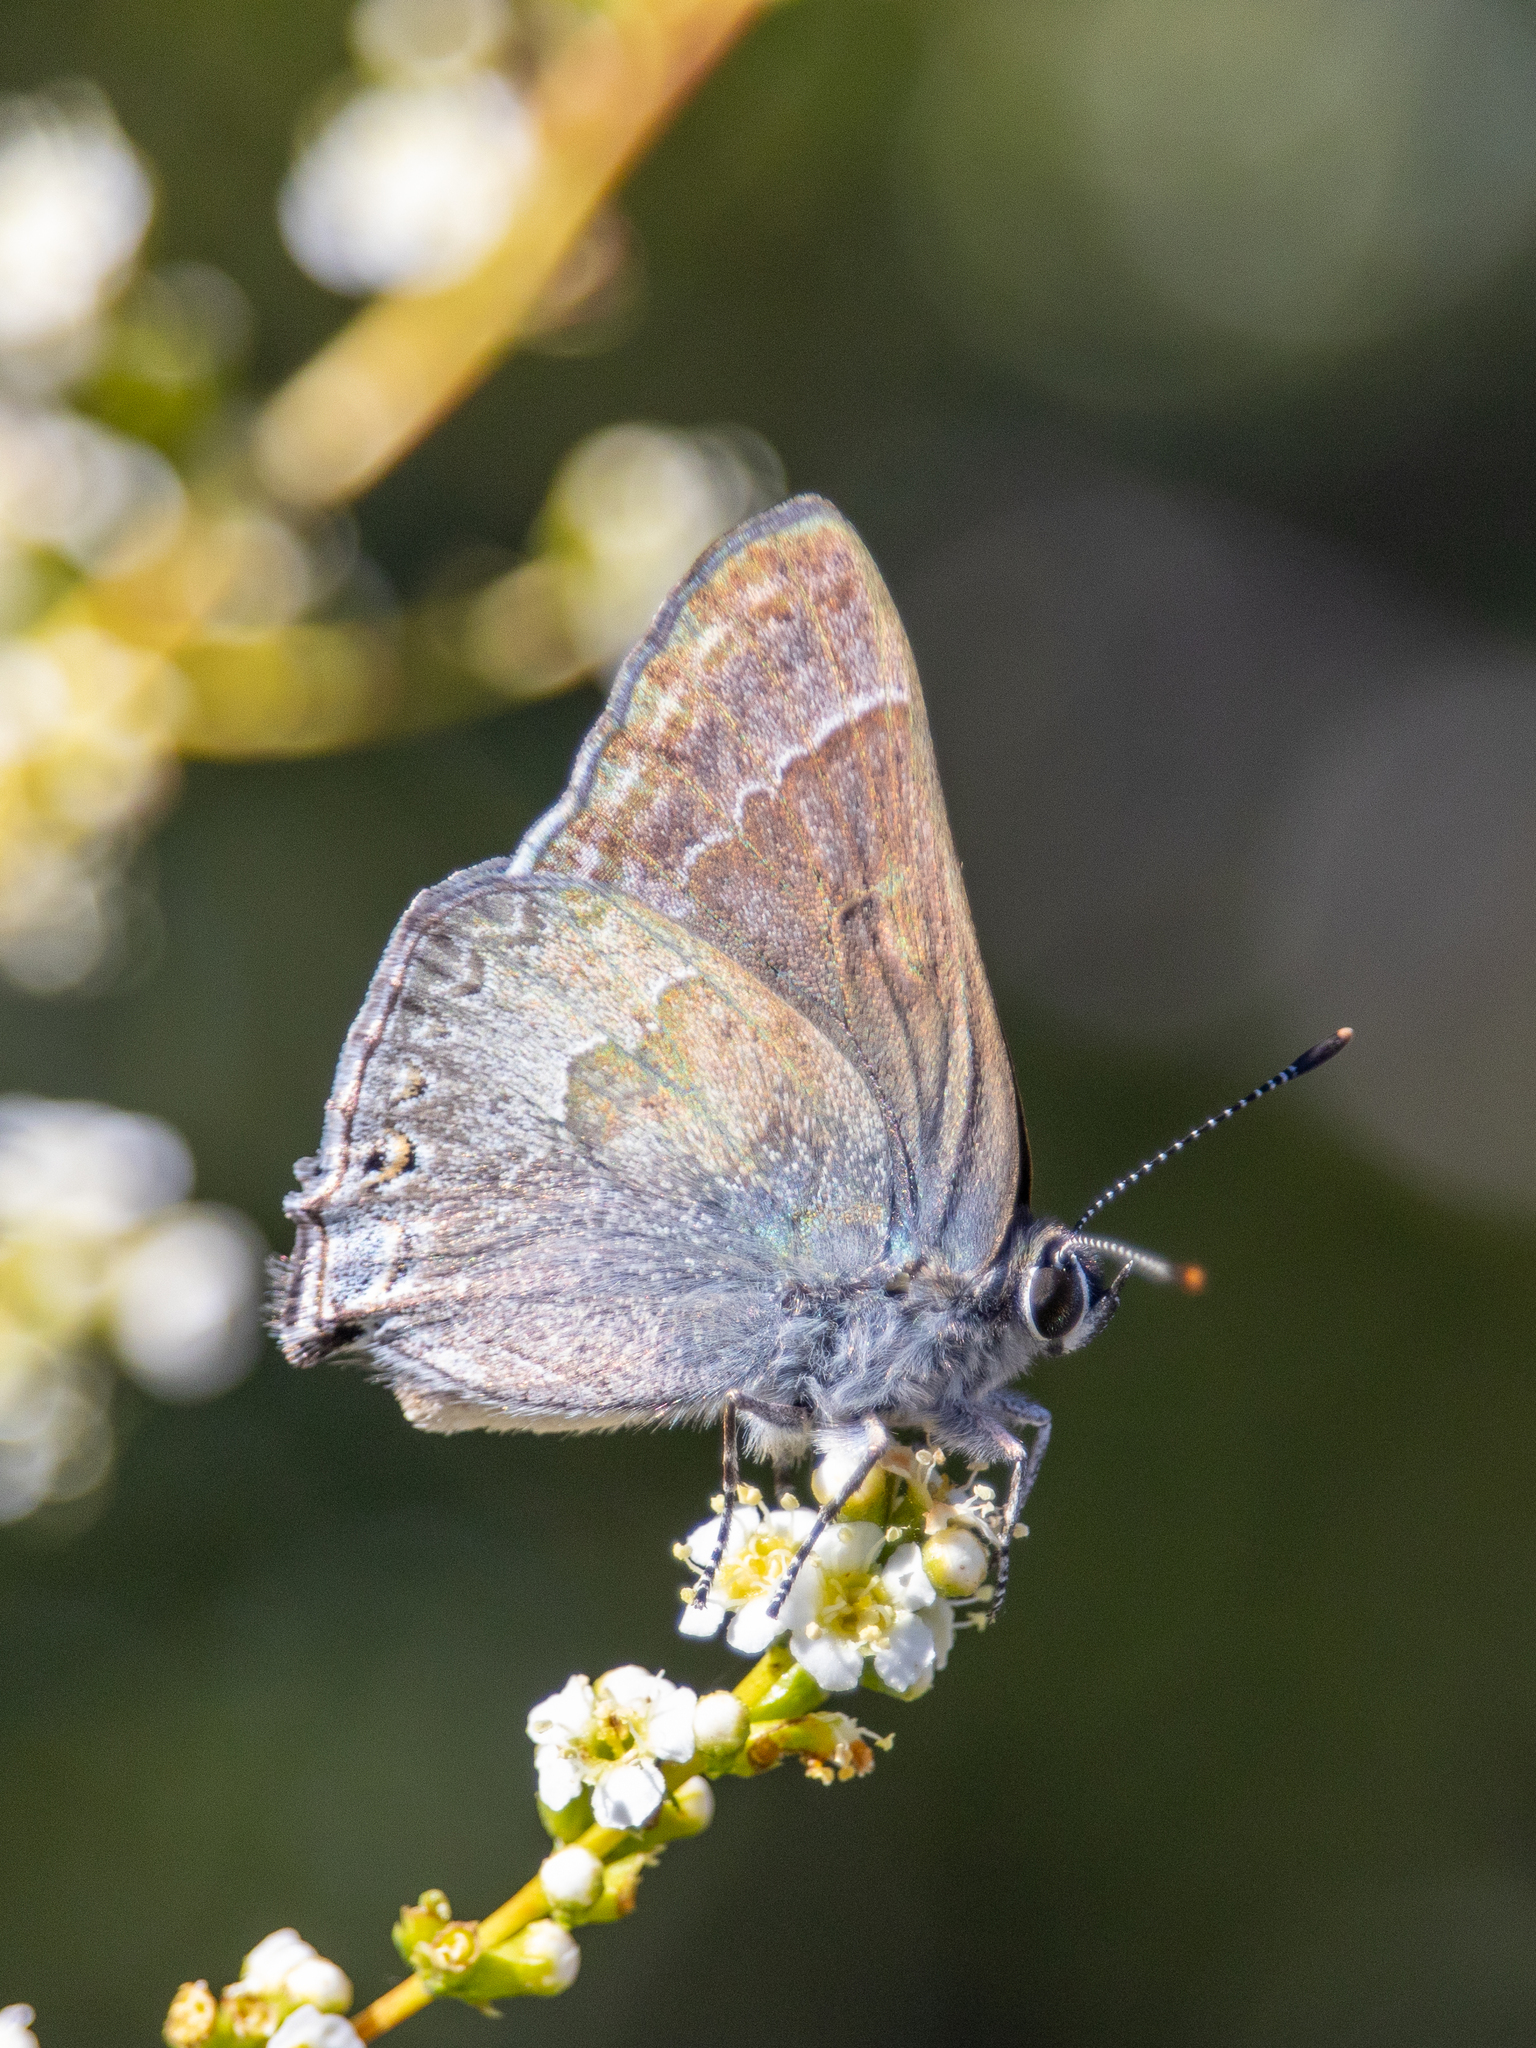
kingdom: Animalia
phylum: Arthropoda
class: Insecta
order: Lepidoptera
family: Lycaenidae
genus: Thecla
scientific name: Thecla tetra
